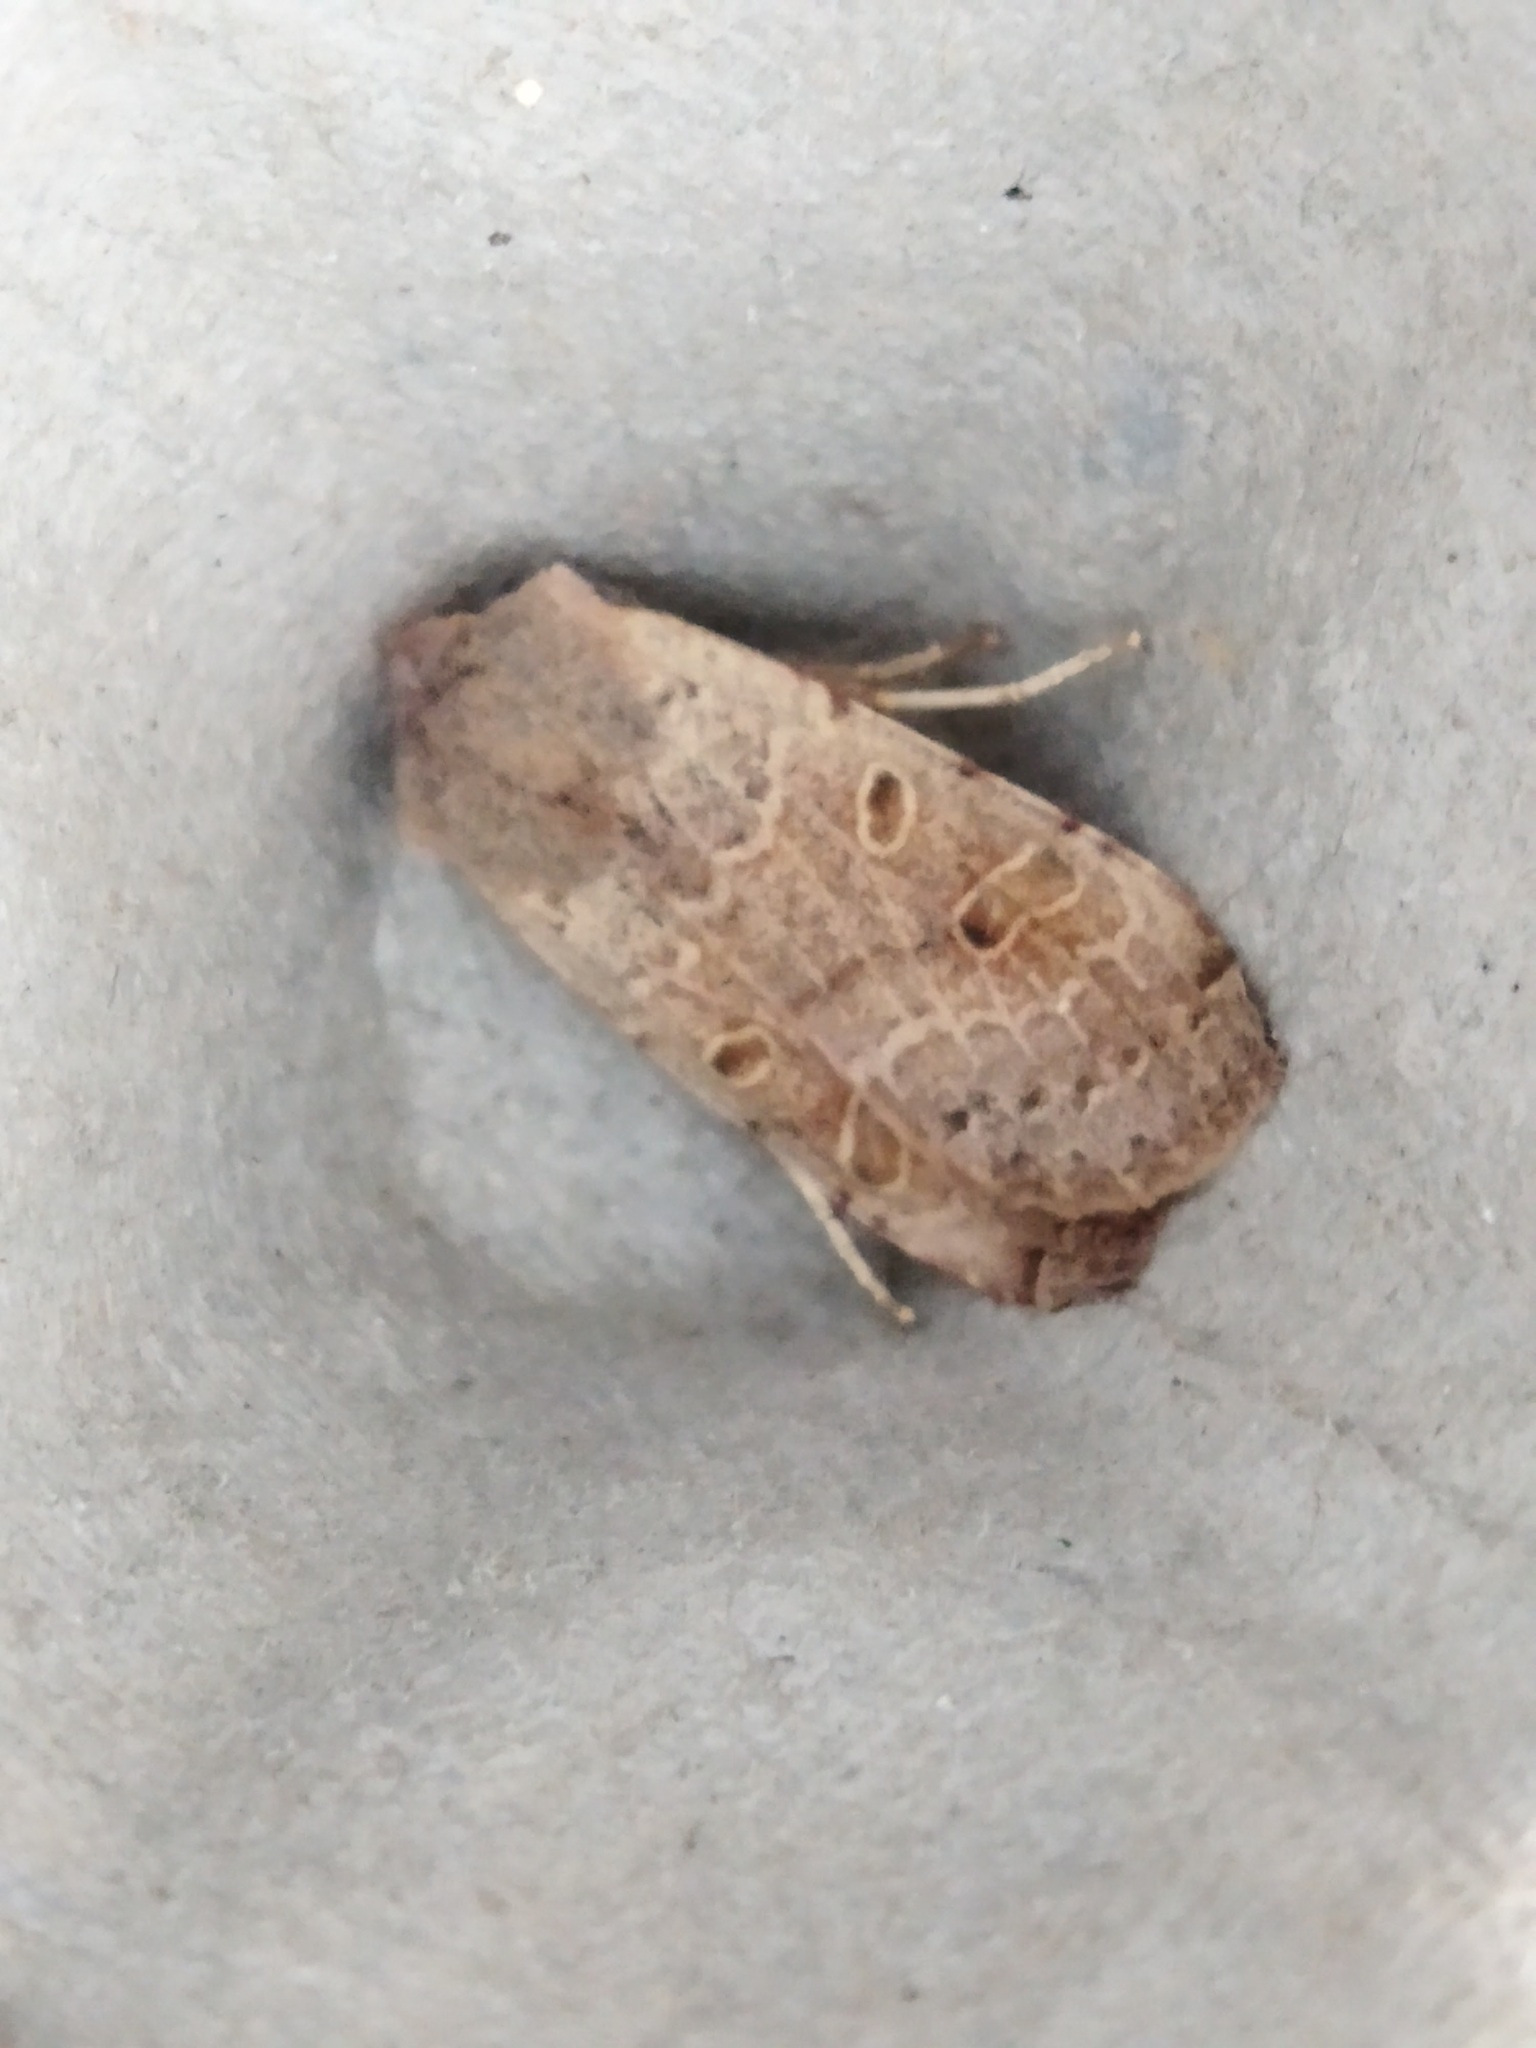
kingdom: Animalia
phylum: Arthropoda
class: Insecta
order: Lepidoptera
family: Noctuidae
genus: Agrochola
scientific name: Agrochola lychnidis
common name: Beaded chestnut
